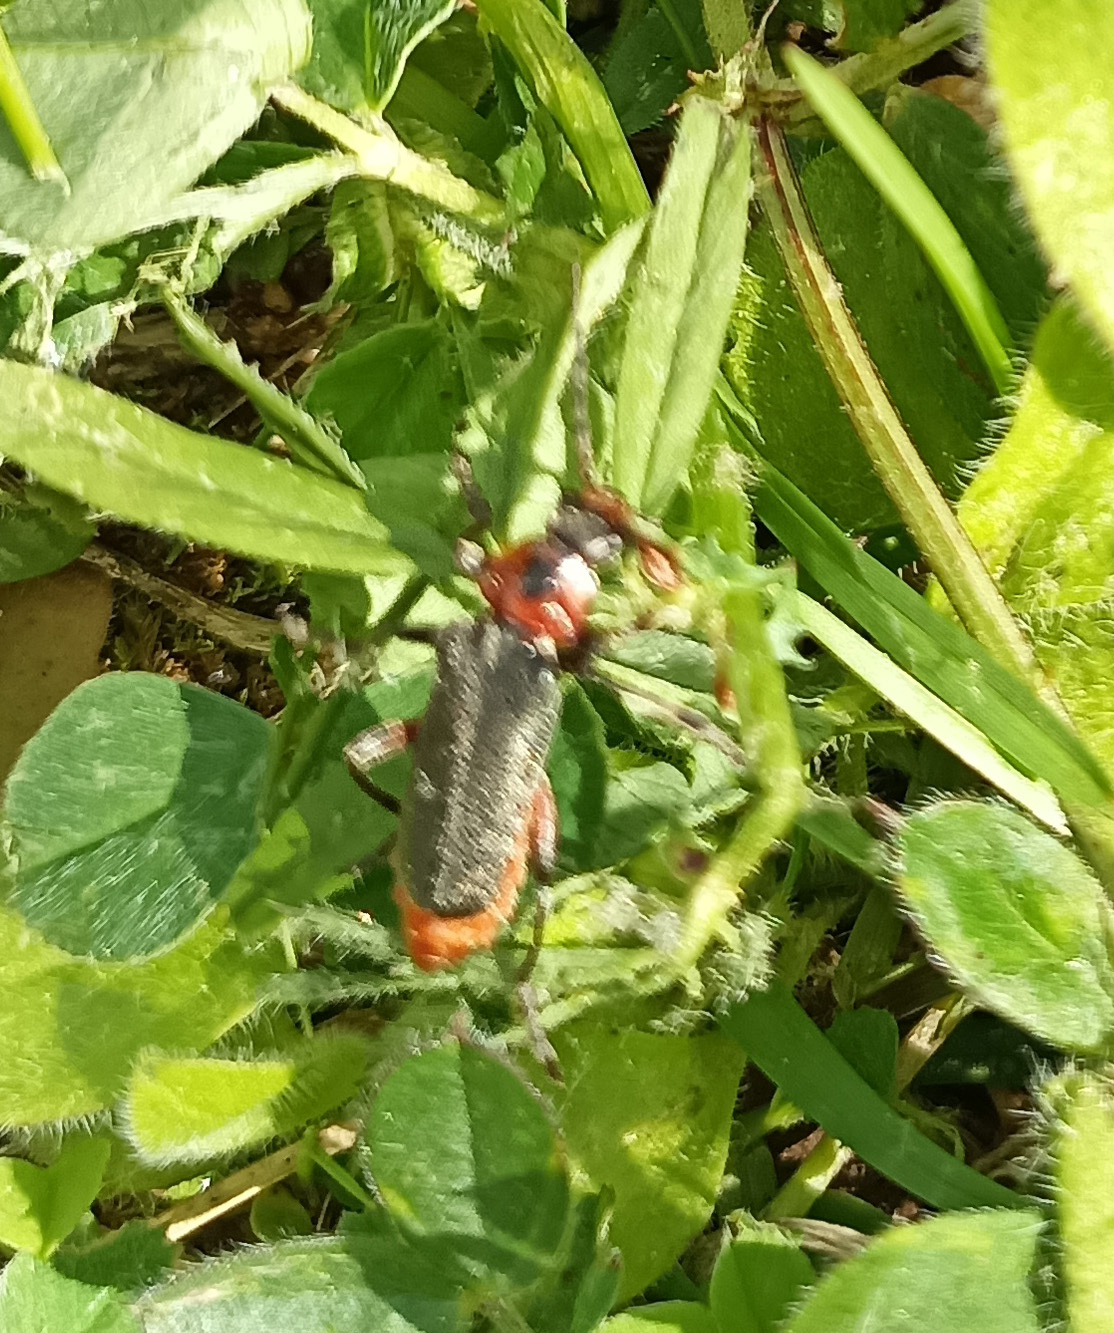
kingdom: Animalia
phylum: Arthropoda
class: Insecta
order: Coleoptera
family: Cantharidae
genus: Cantharis
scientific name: Cantharis rustica
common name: Soldier beetle
